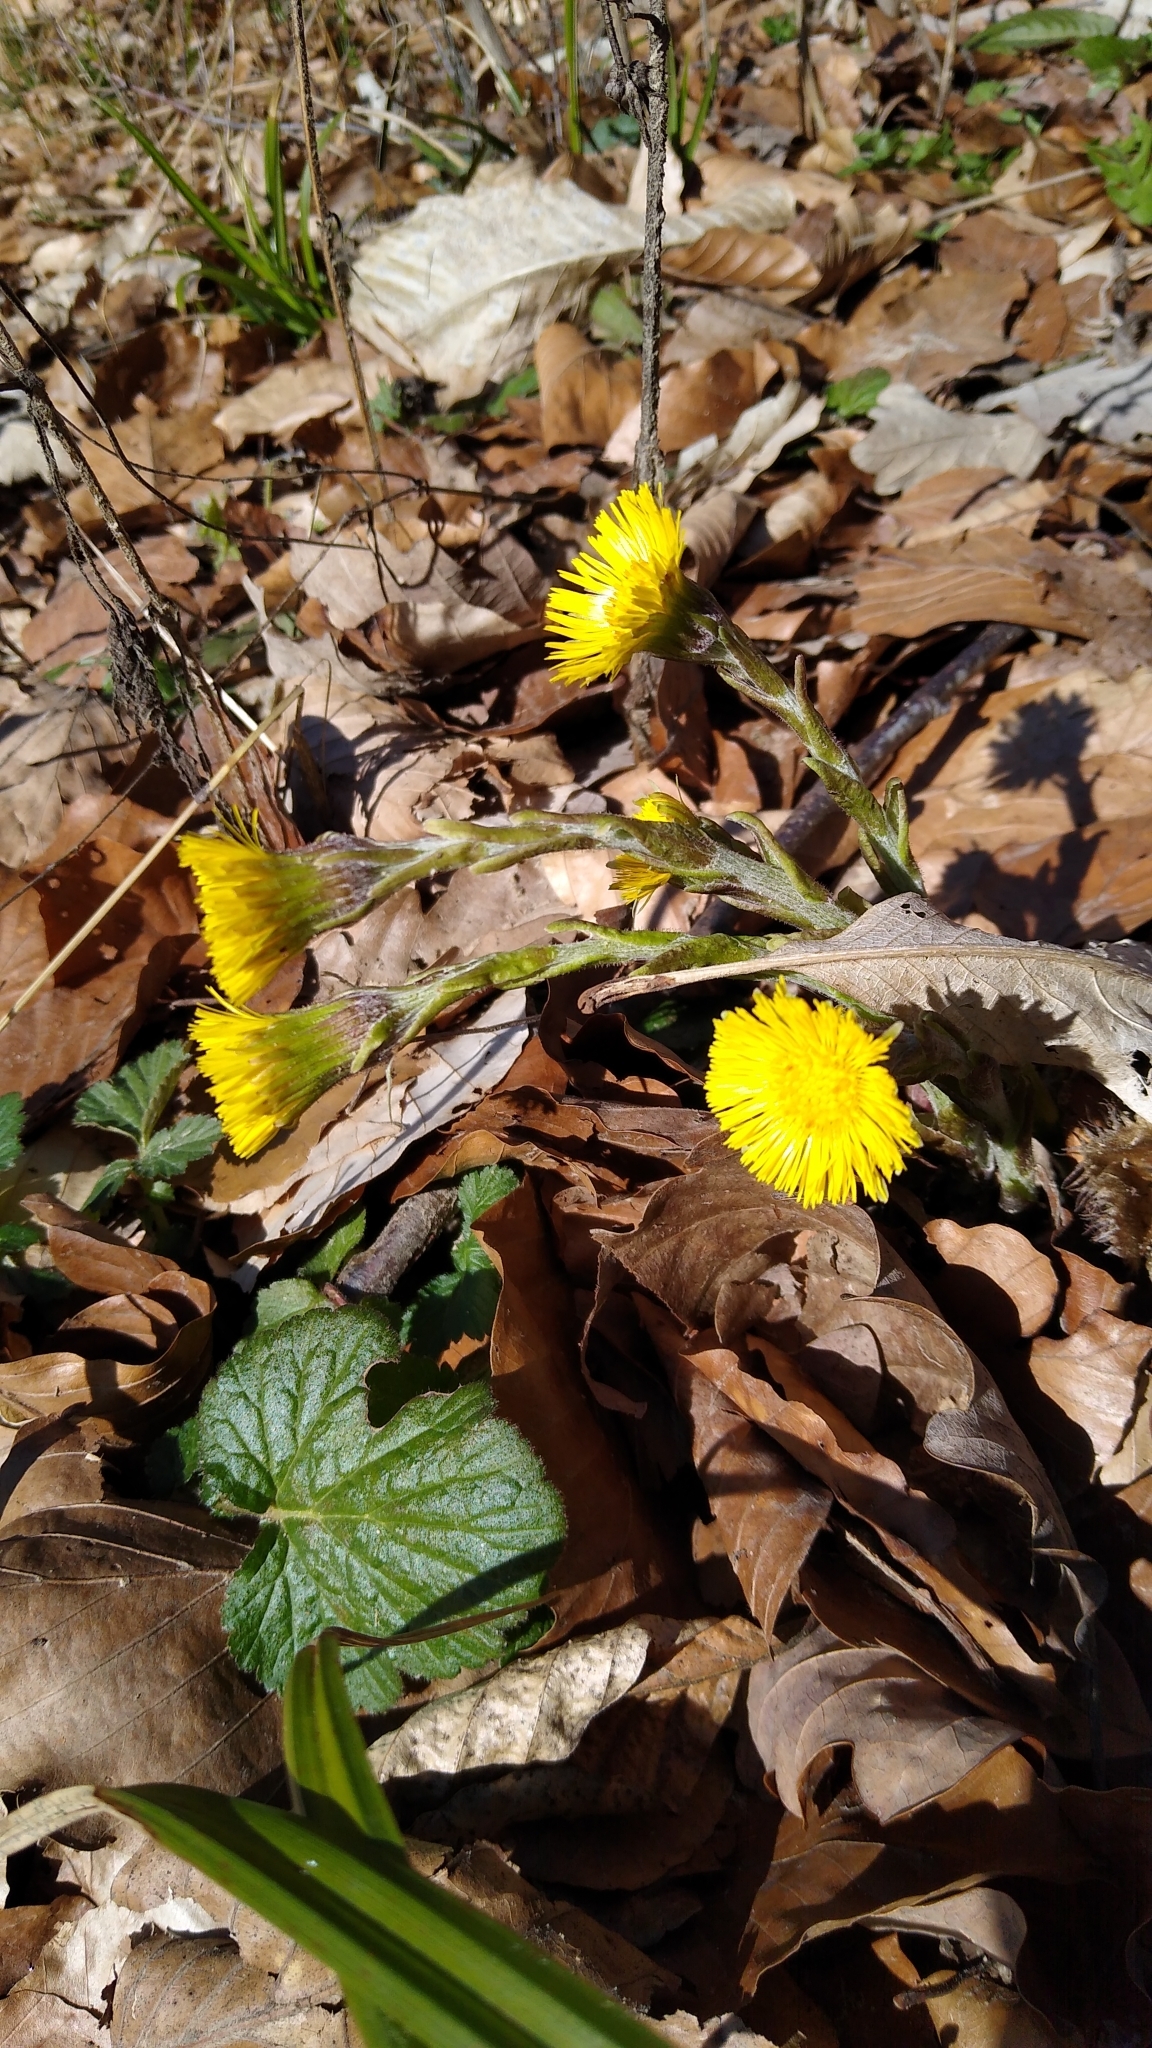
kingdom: Plantae
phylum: Tracheophyta
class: Magnoliopsida
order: Asterales
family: Asteraceae
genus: Tussilago
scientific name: Tussilago farfara
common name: Coltsfoot
